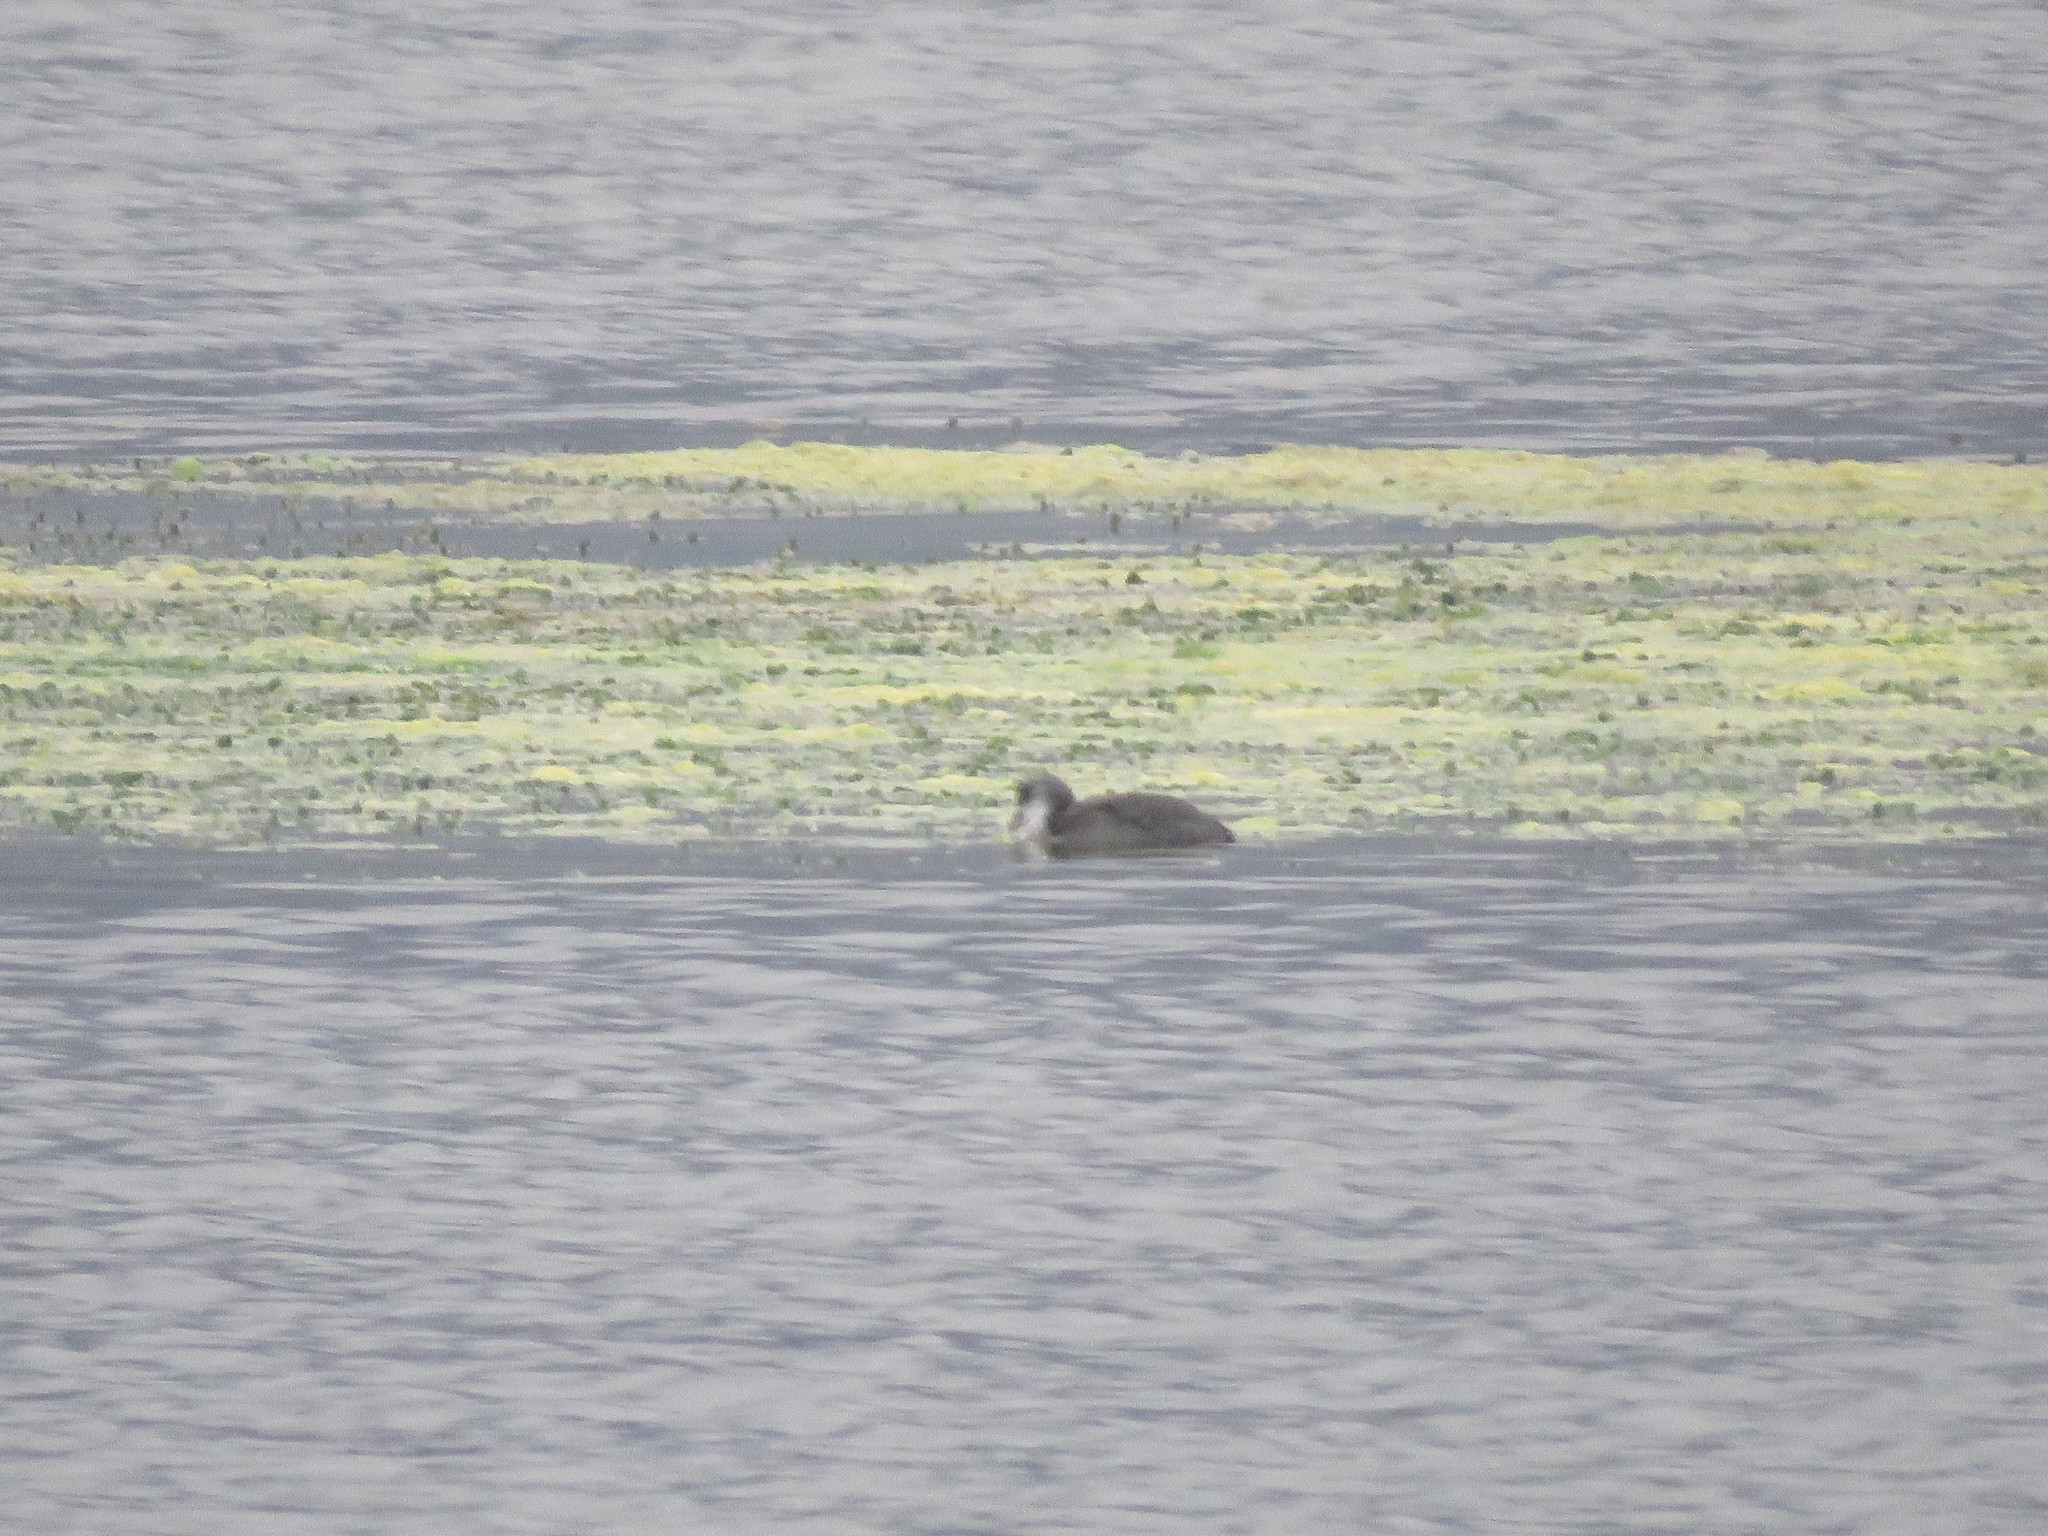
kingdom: Animalia
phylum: Chordata
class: Aves
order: Gruiformes
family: Rallidae
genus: Fulica
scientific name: Fulica ardesiaca
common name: Andean coot
